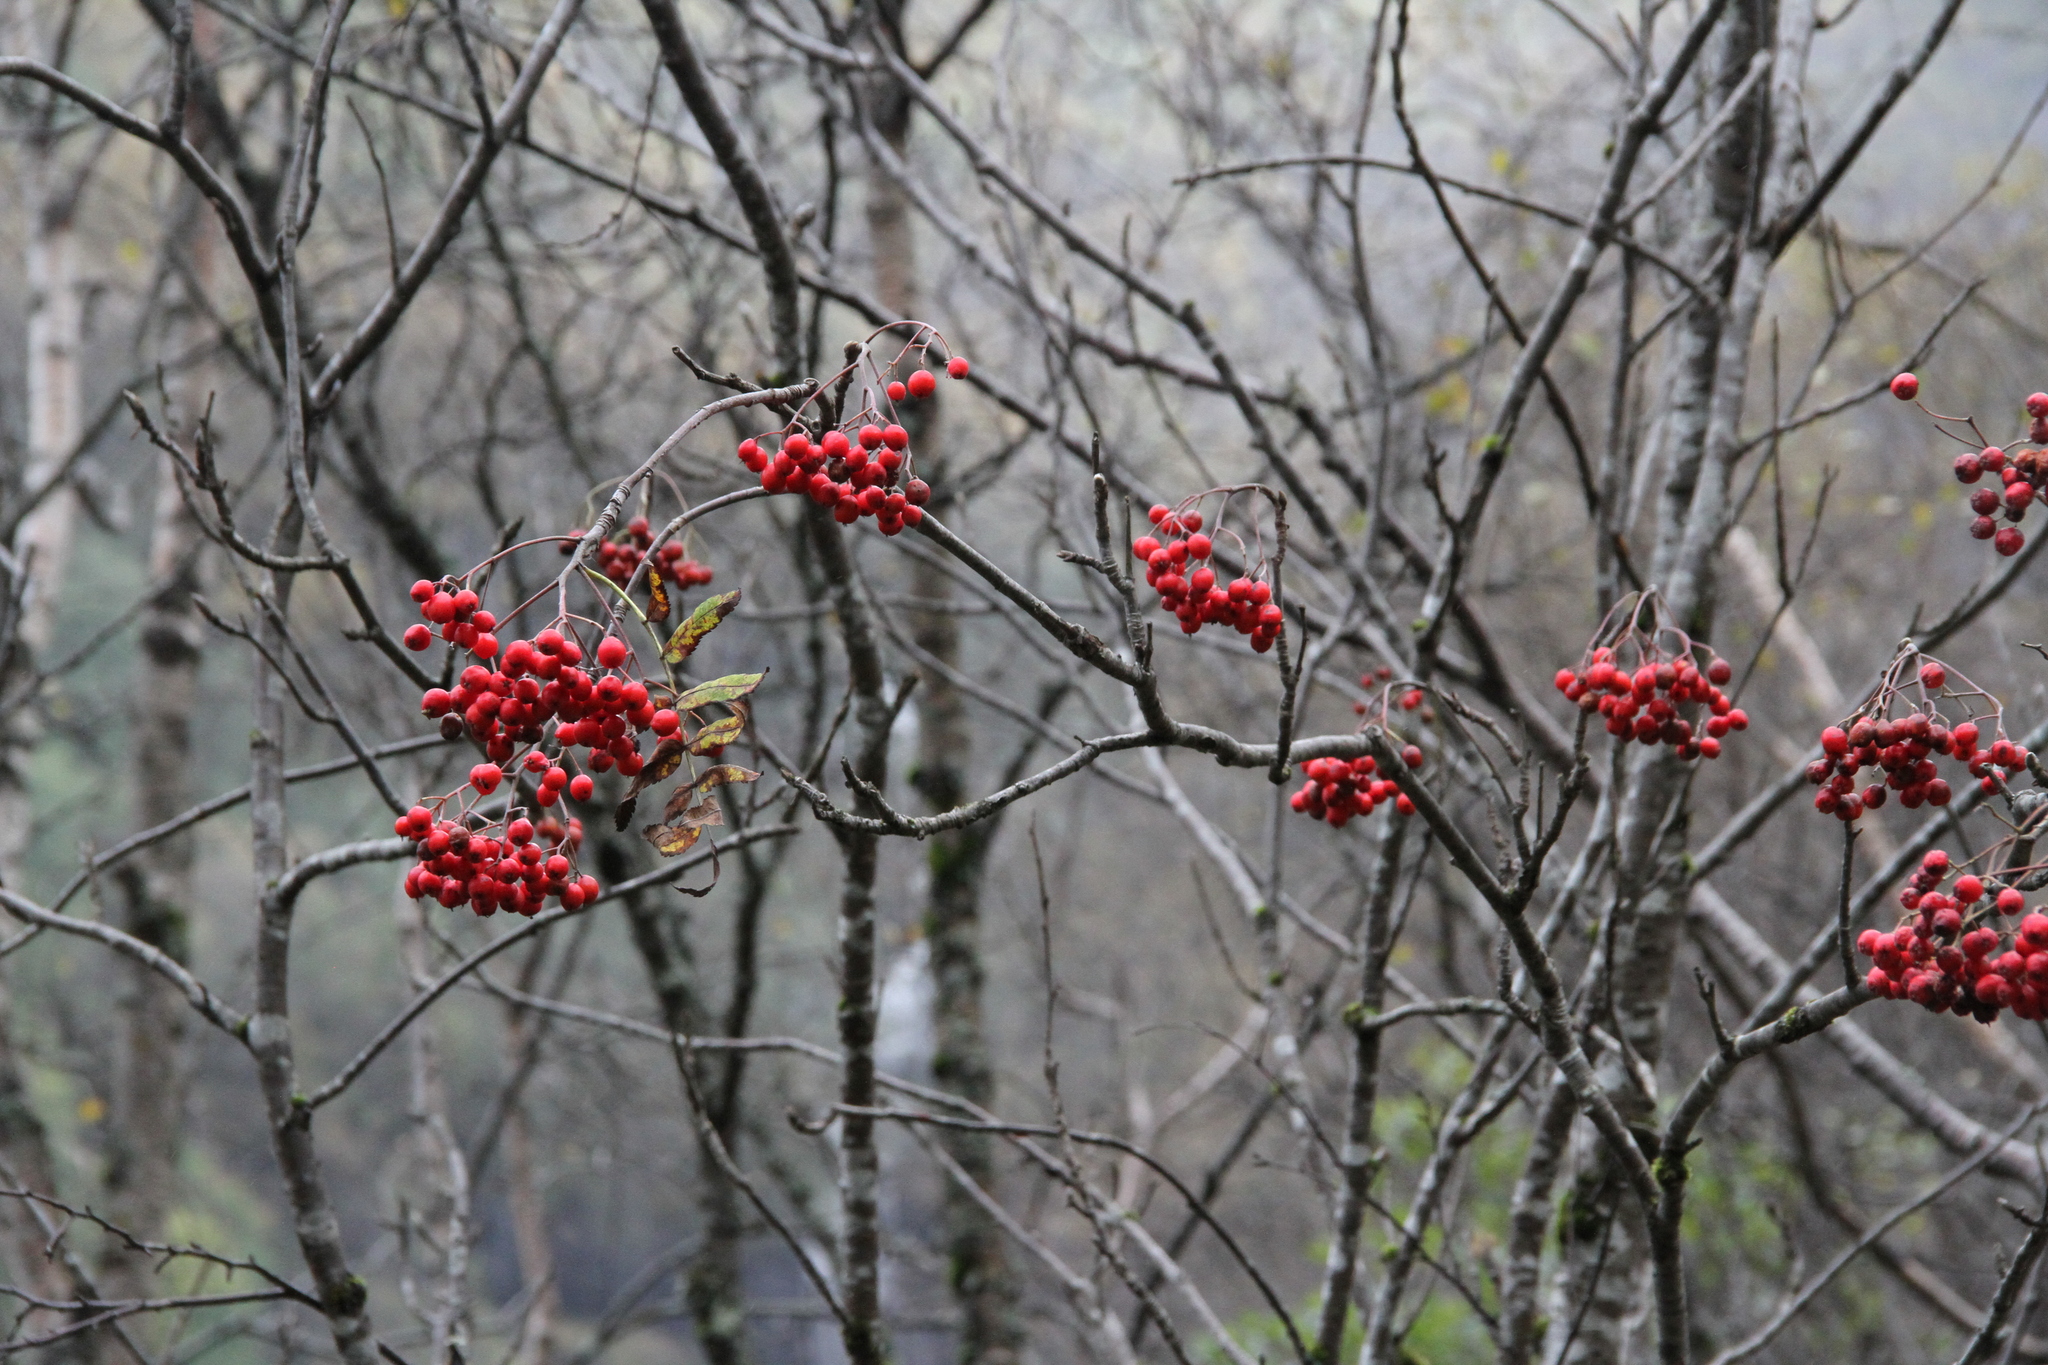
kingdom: Plantae
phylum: Tracheophyta
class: Magnoliopsida
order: Rosales
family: Rosaceae
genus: Sorbus
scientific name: Sorbus aucuparia
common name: Rowan
